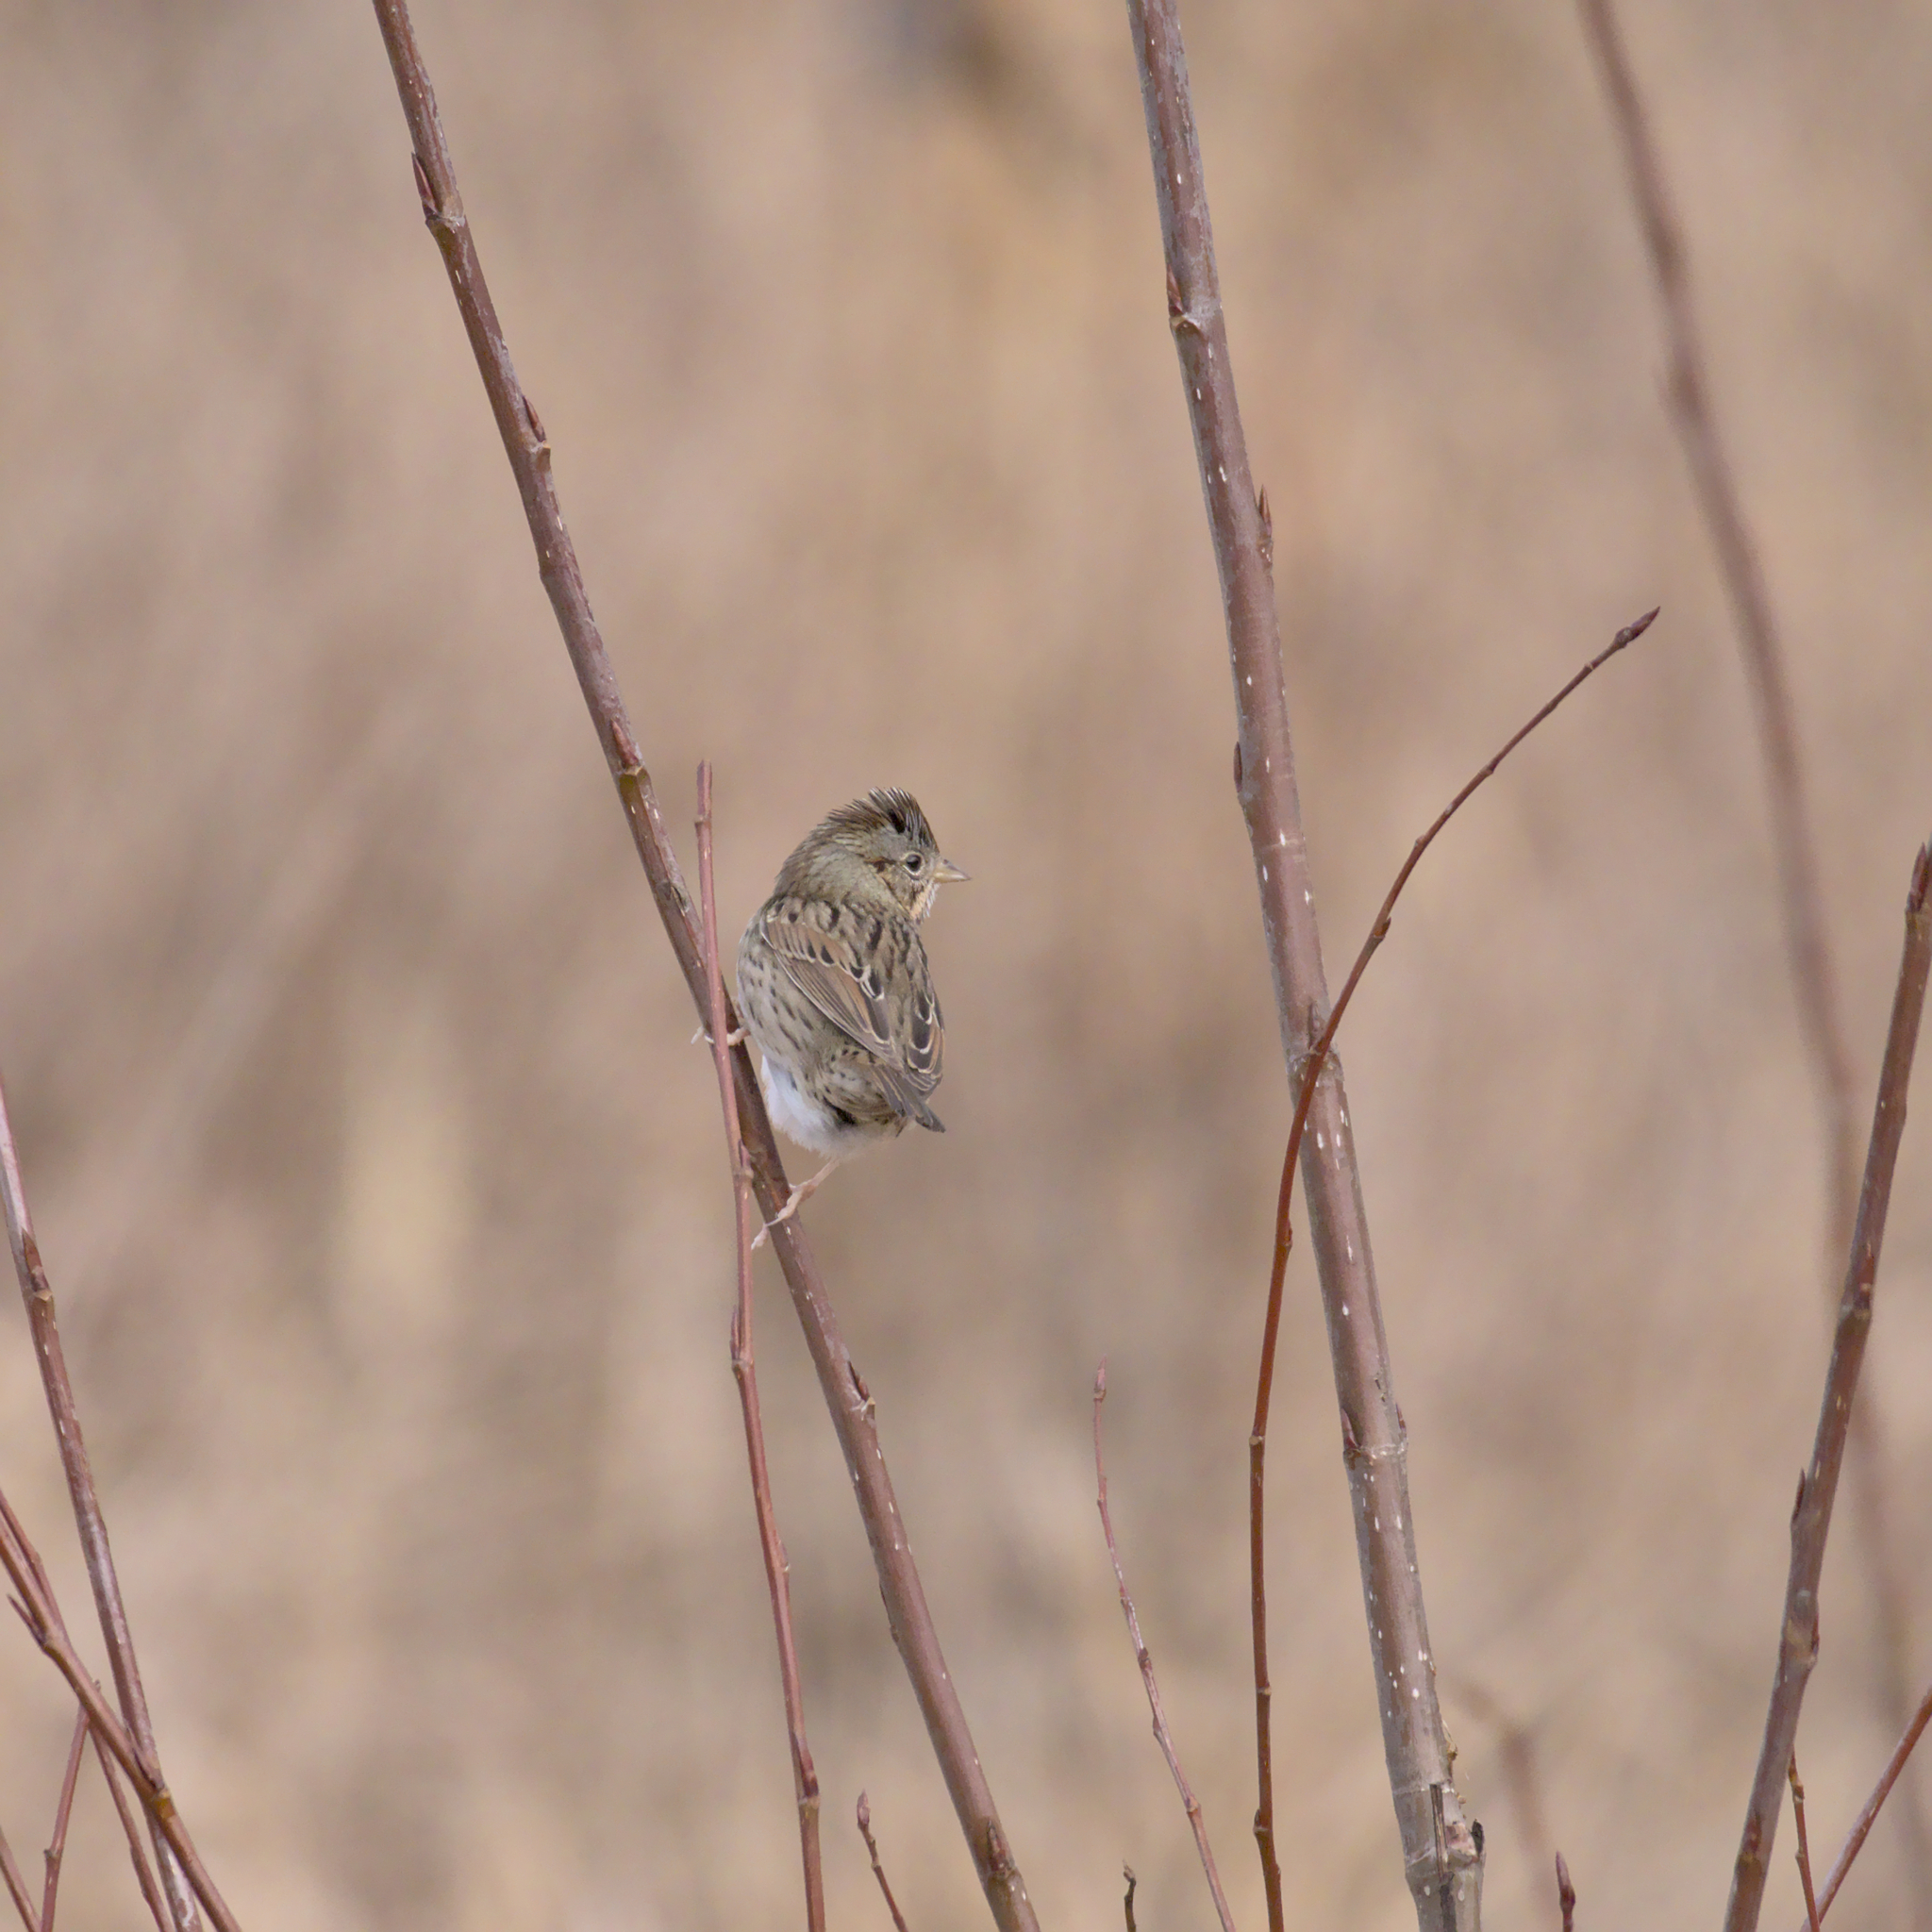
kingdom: Animalia
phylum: Chordata
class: Aves
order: Passeriformes
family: Passerellidae
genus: Melospiza
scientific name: Melospiza lincolnii
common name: Lincoln's sparrow
